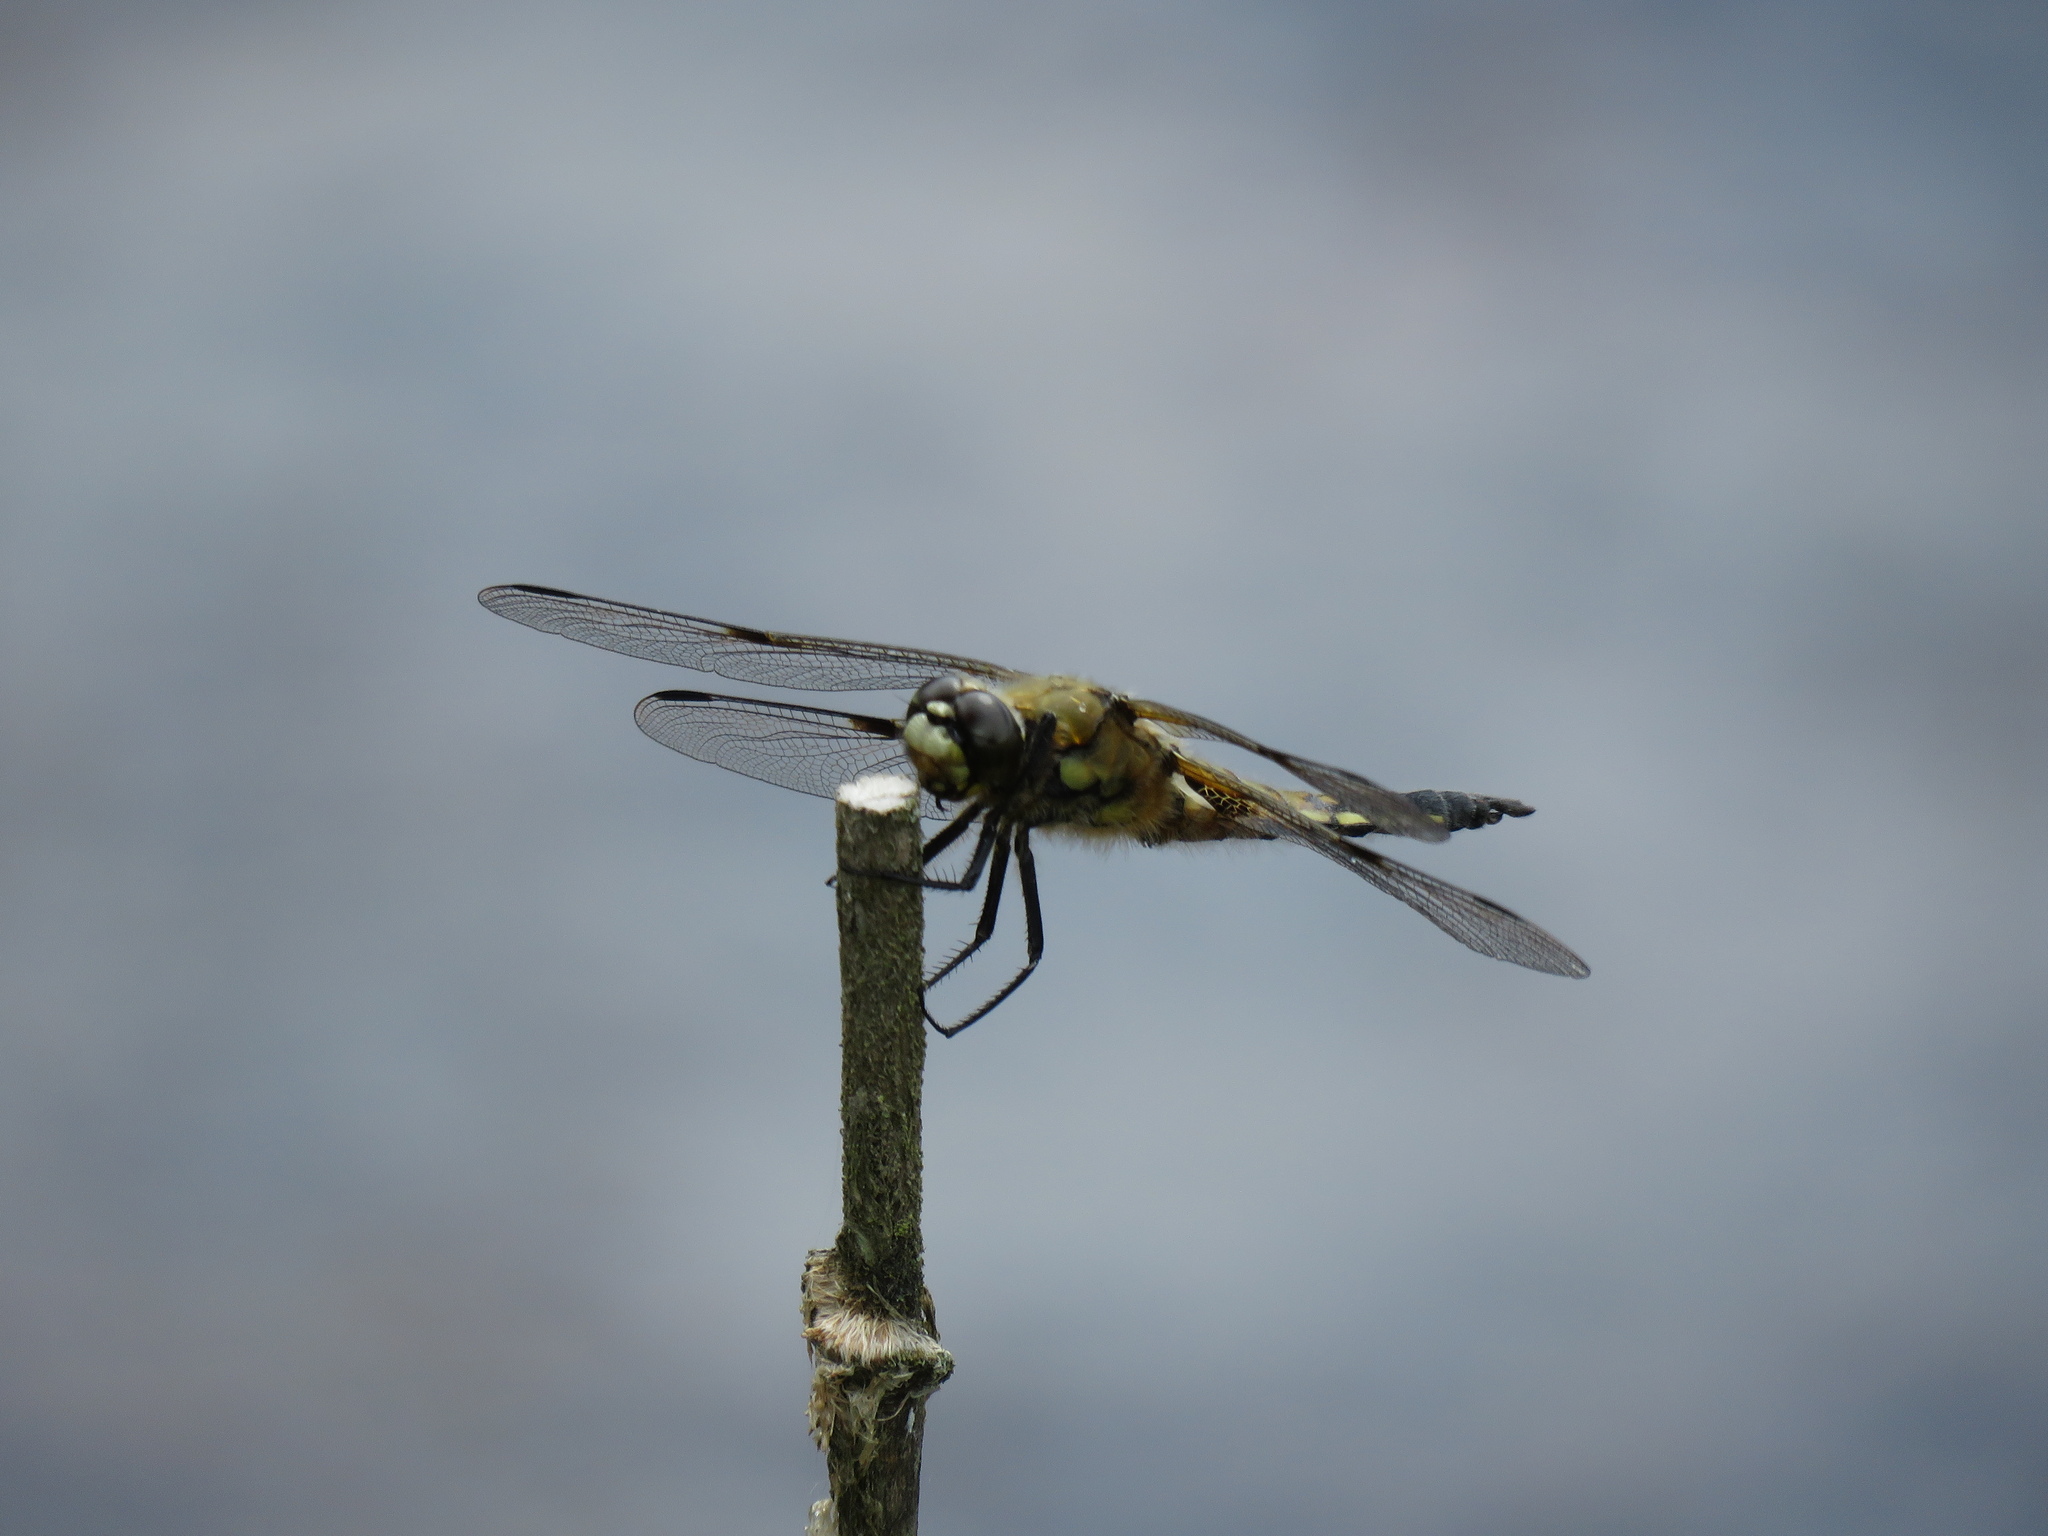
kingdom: Animalia
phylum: Arthropoda
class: Insecta
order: Odonata
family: Libellulidae
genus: Libellula
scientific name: Libellula quadrimaculata
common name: Four-spotted chaser
